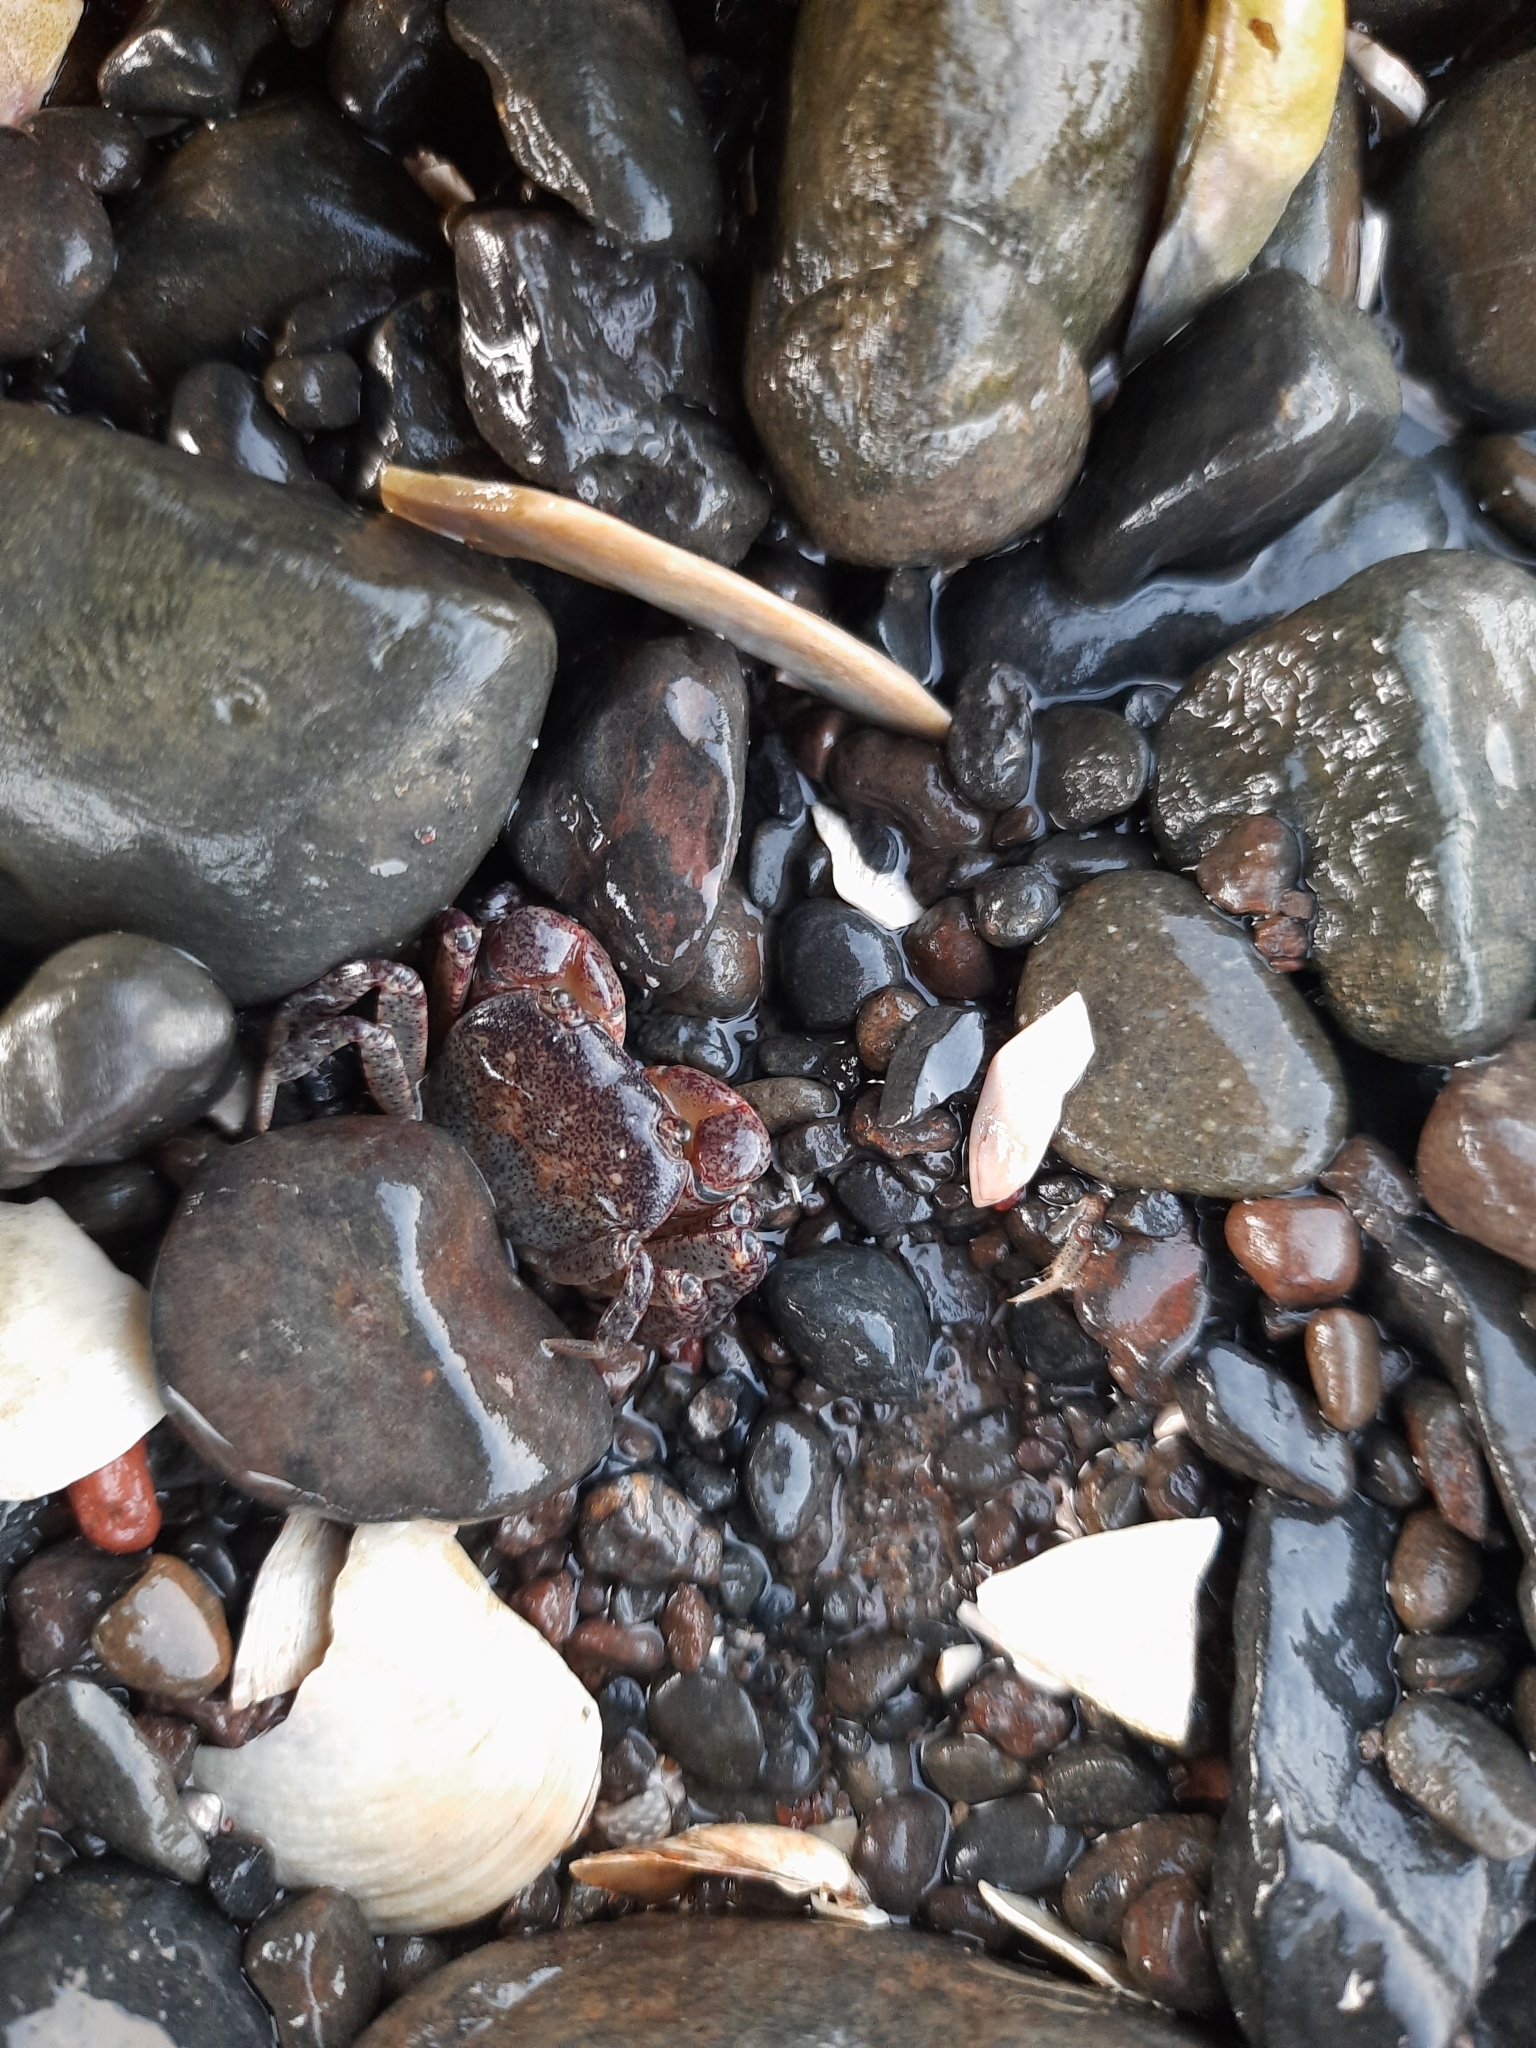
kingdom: Animalia
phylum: Arthropoda
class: Malacostraca
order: Decapoda
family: Varunidae
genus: Cyclograpsus
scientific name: Cyclograpsus lavauxi
